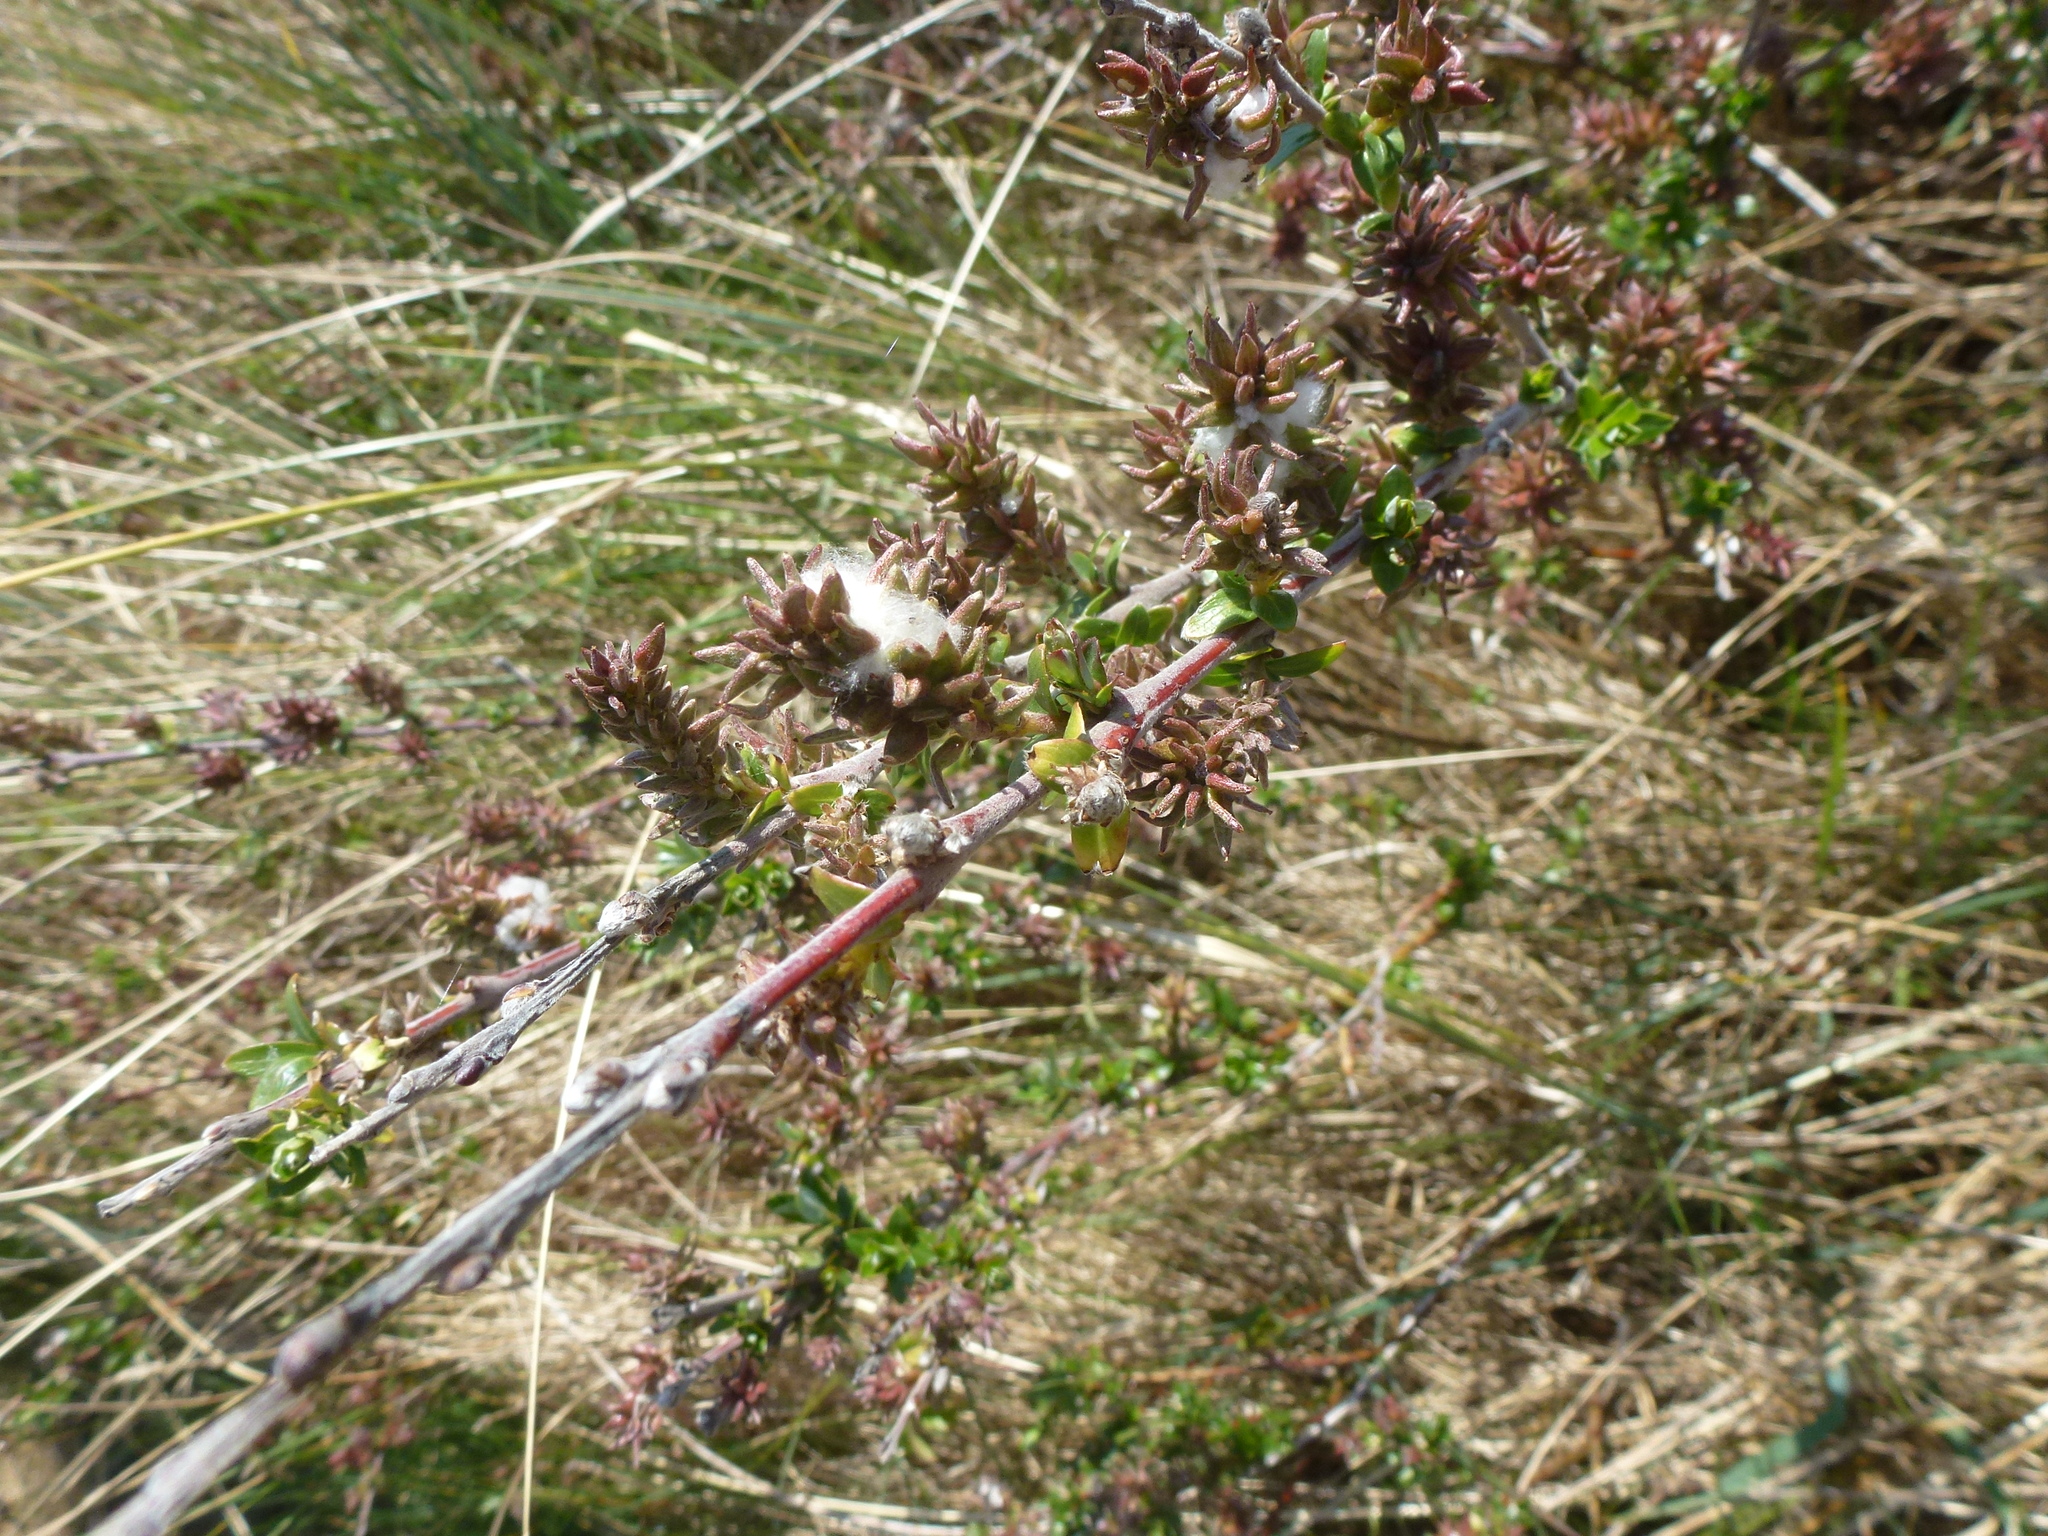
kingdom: Plantae
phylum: Tracheophyta
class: Magnoliopsida
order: Malpighiales
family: Salicaceae
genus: Salix
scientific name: Salix repens
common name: Creeping willow
